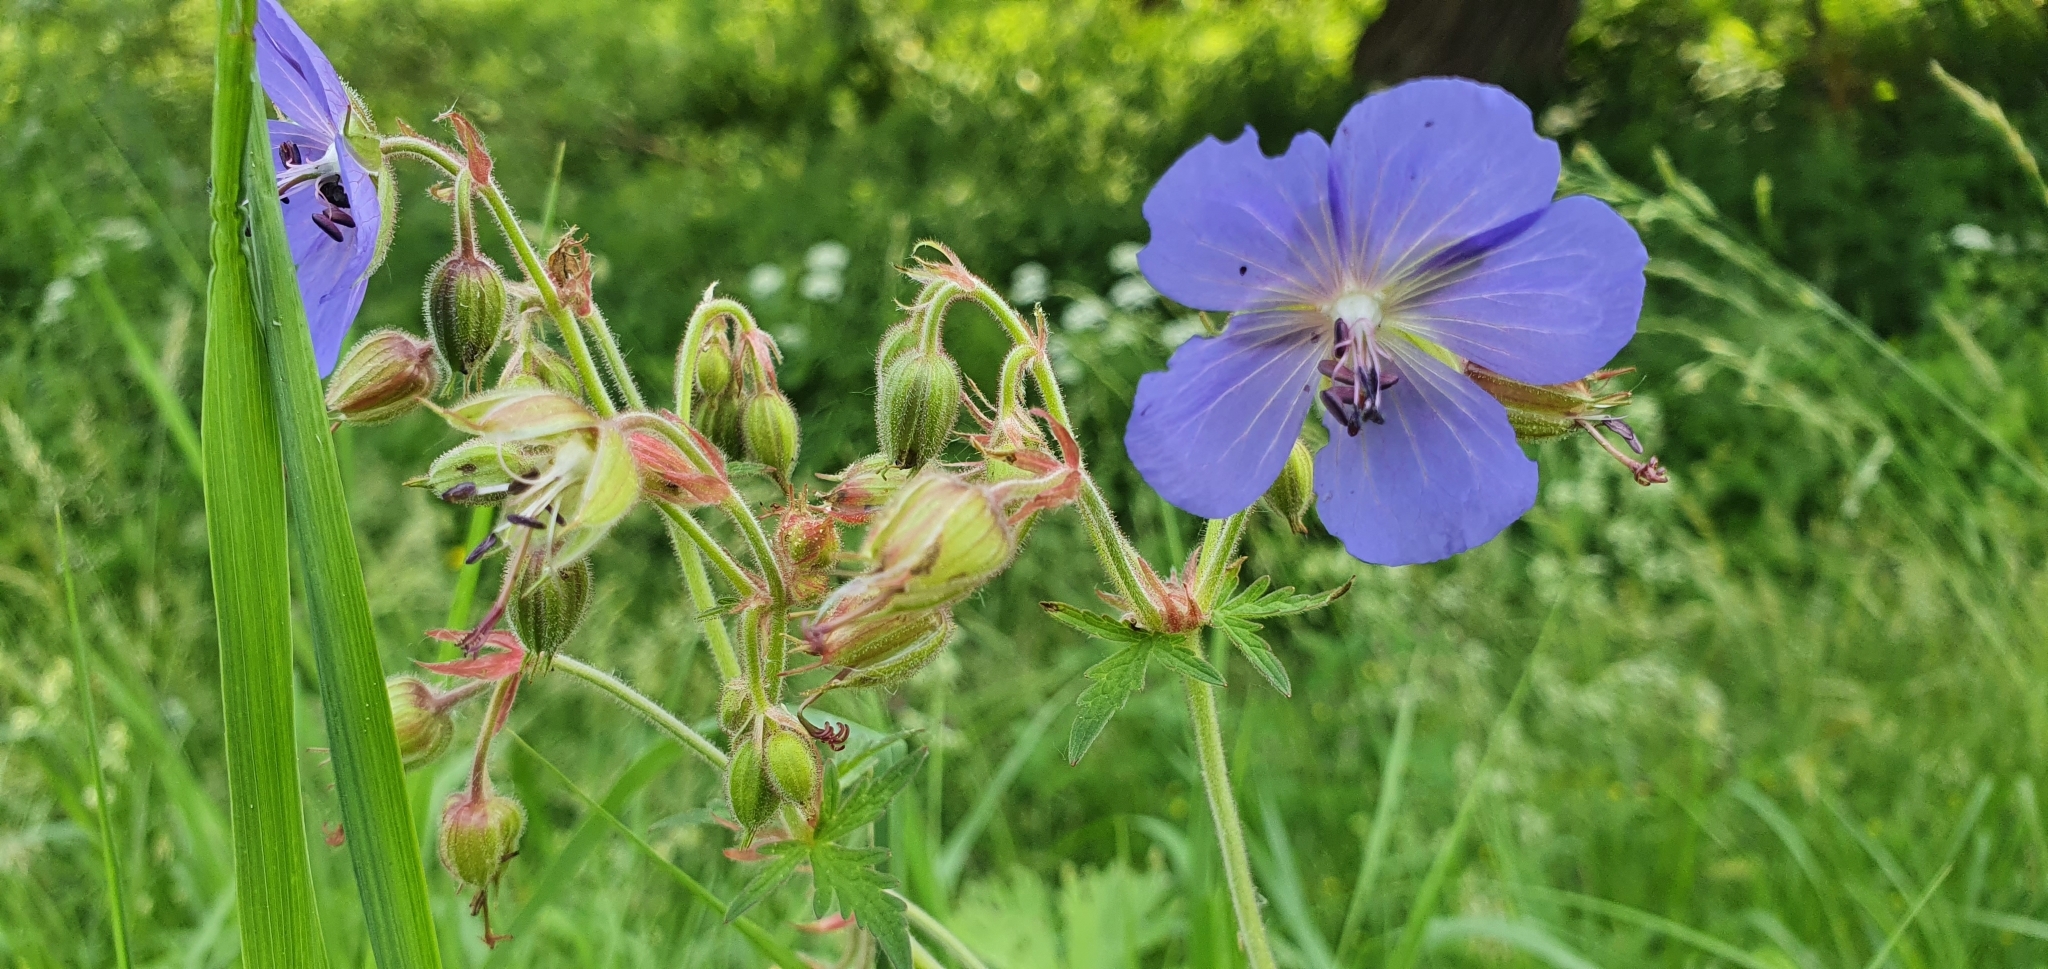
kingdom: Plantae
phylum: Tracheophyta
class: Magnoliopsida
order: Geraniales
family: Geraniaceae
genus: Geranium
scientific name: Geranium pratense
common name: Meadow crane's-bill
